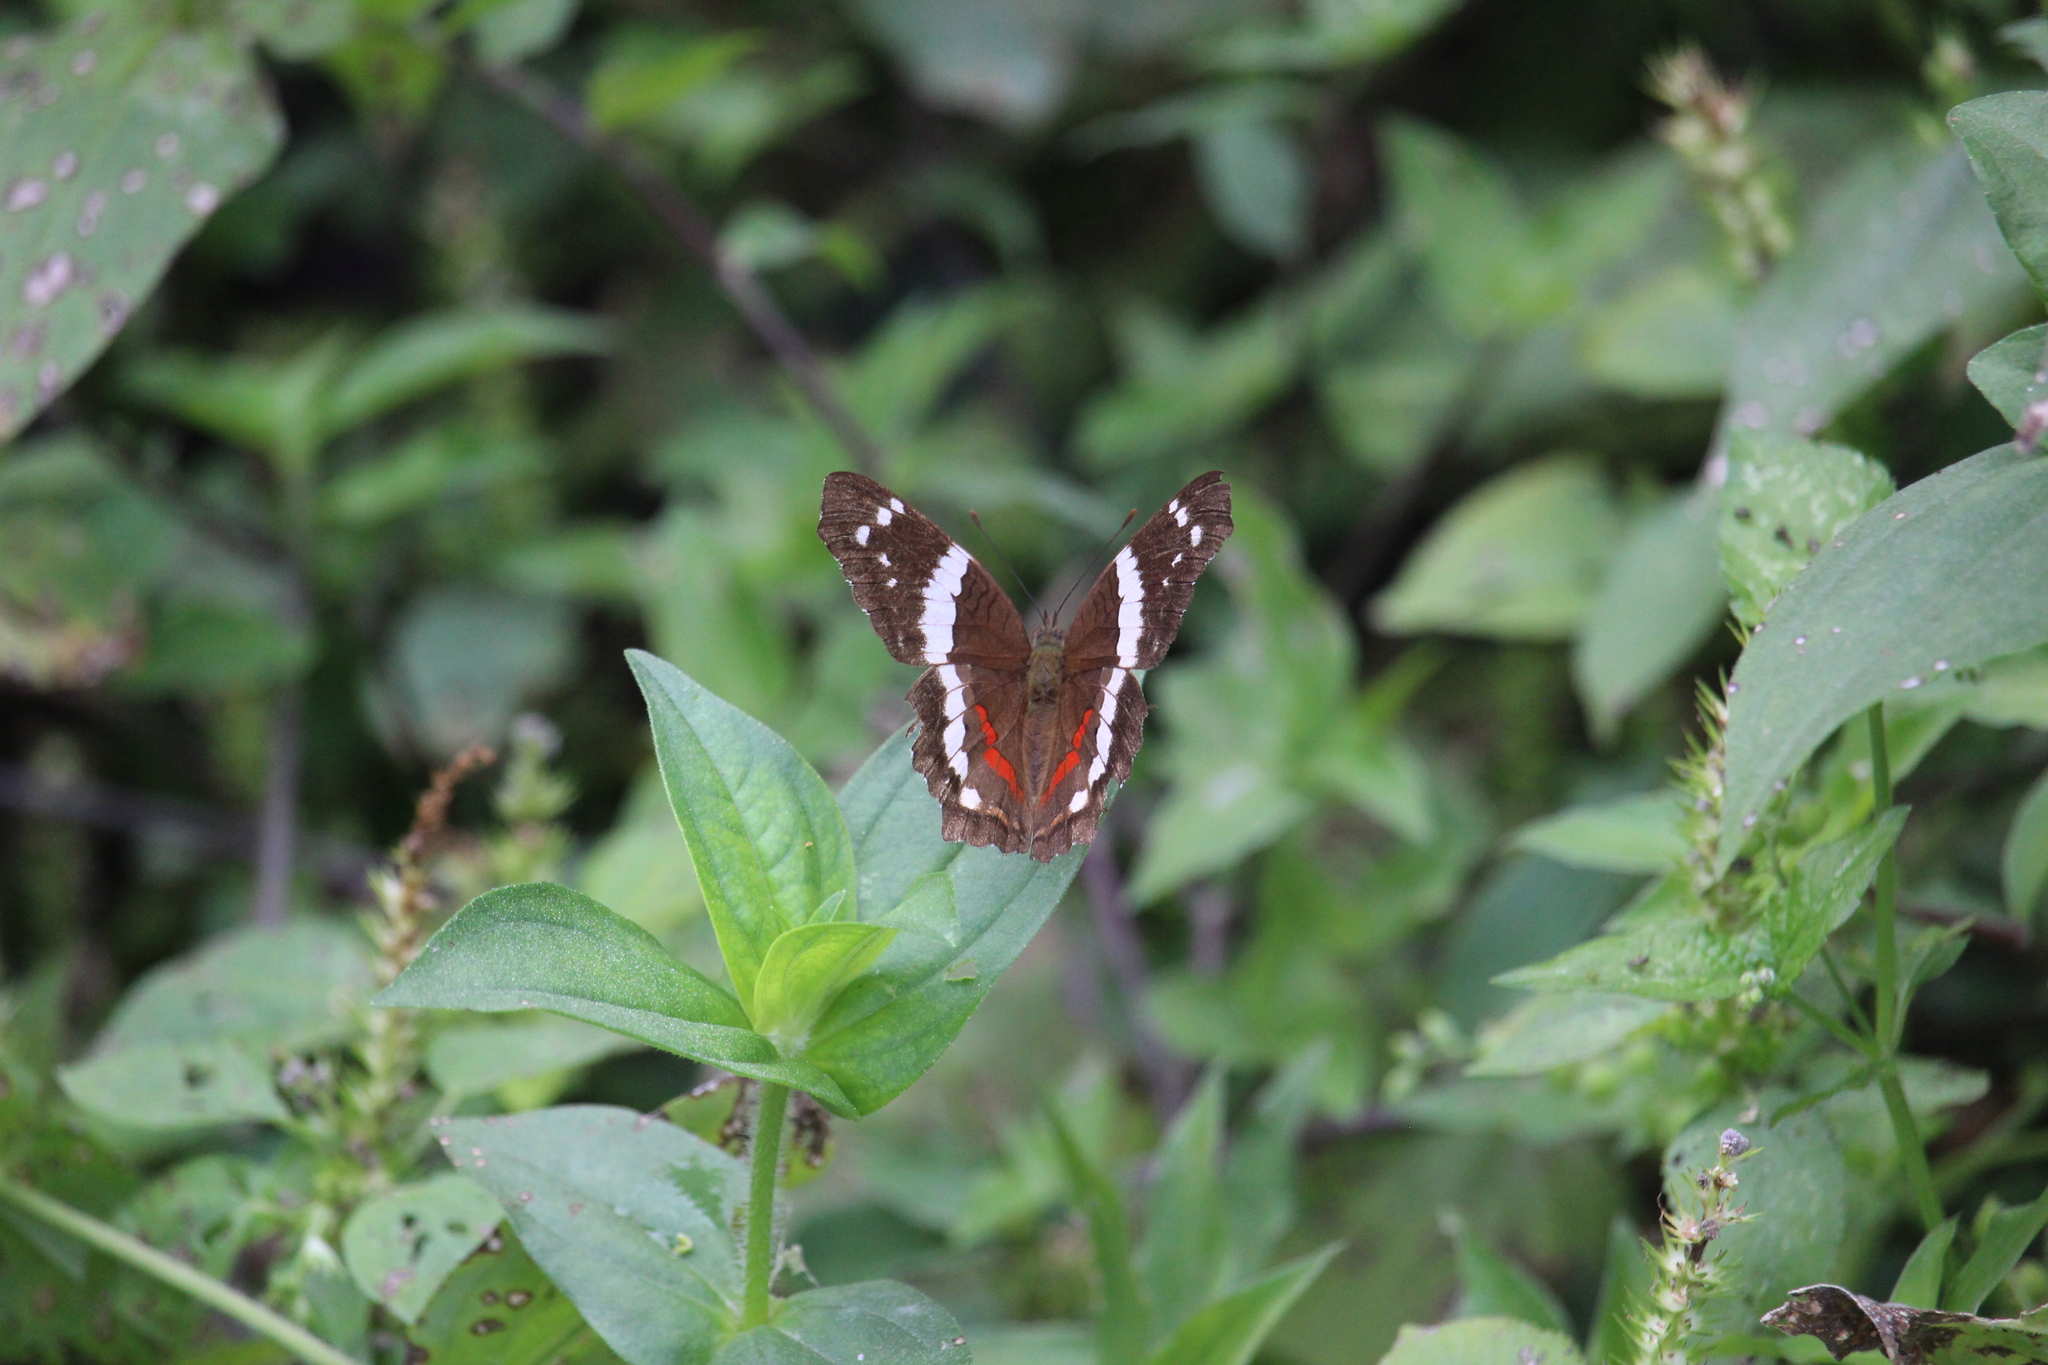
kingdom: Animalia
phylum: Arthropoda
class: Insecta
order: Lepidoptera
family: Nymphalidae
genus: Anartia
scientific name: Anartia fatima
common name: Banded peacock
